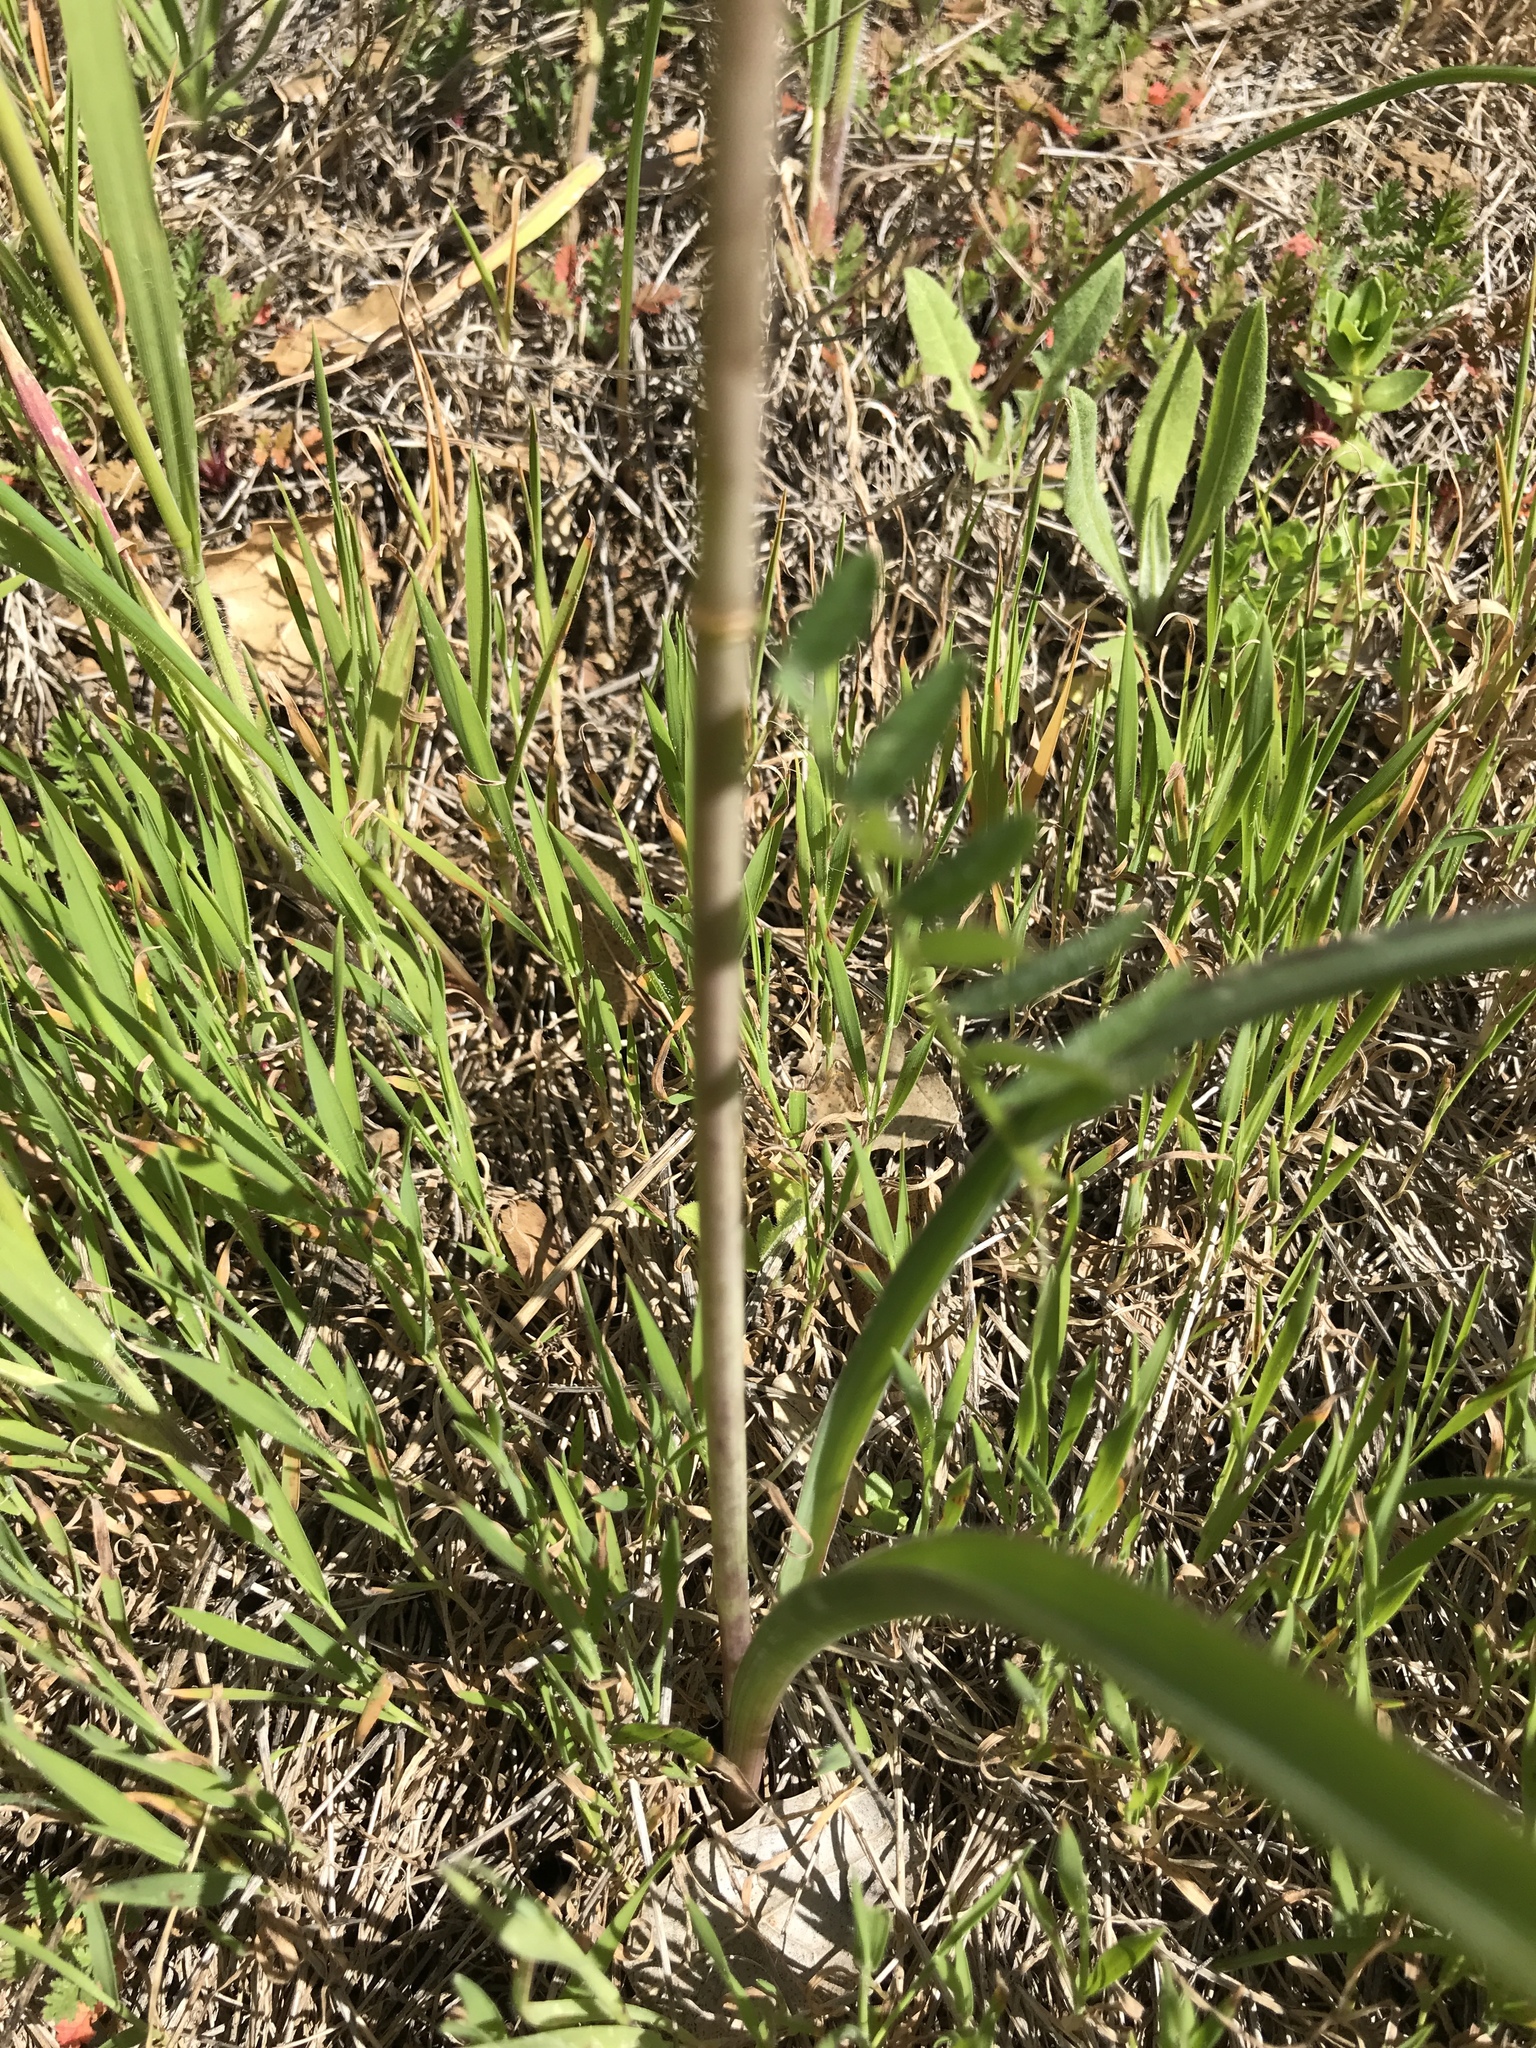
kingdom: Plantae
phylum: Tracheophyta
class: Liliopsida
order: Asparagales
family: Asparagaceae
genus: Dipterostemon
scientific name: Dipterostemon capitatus
